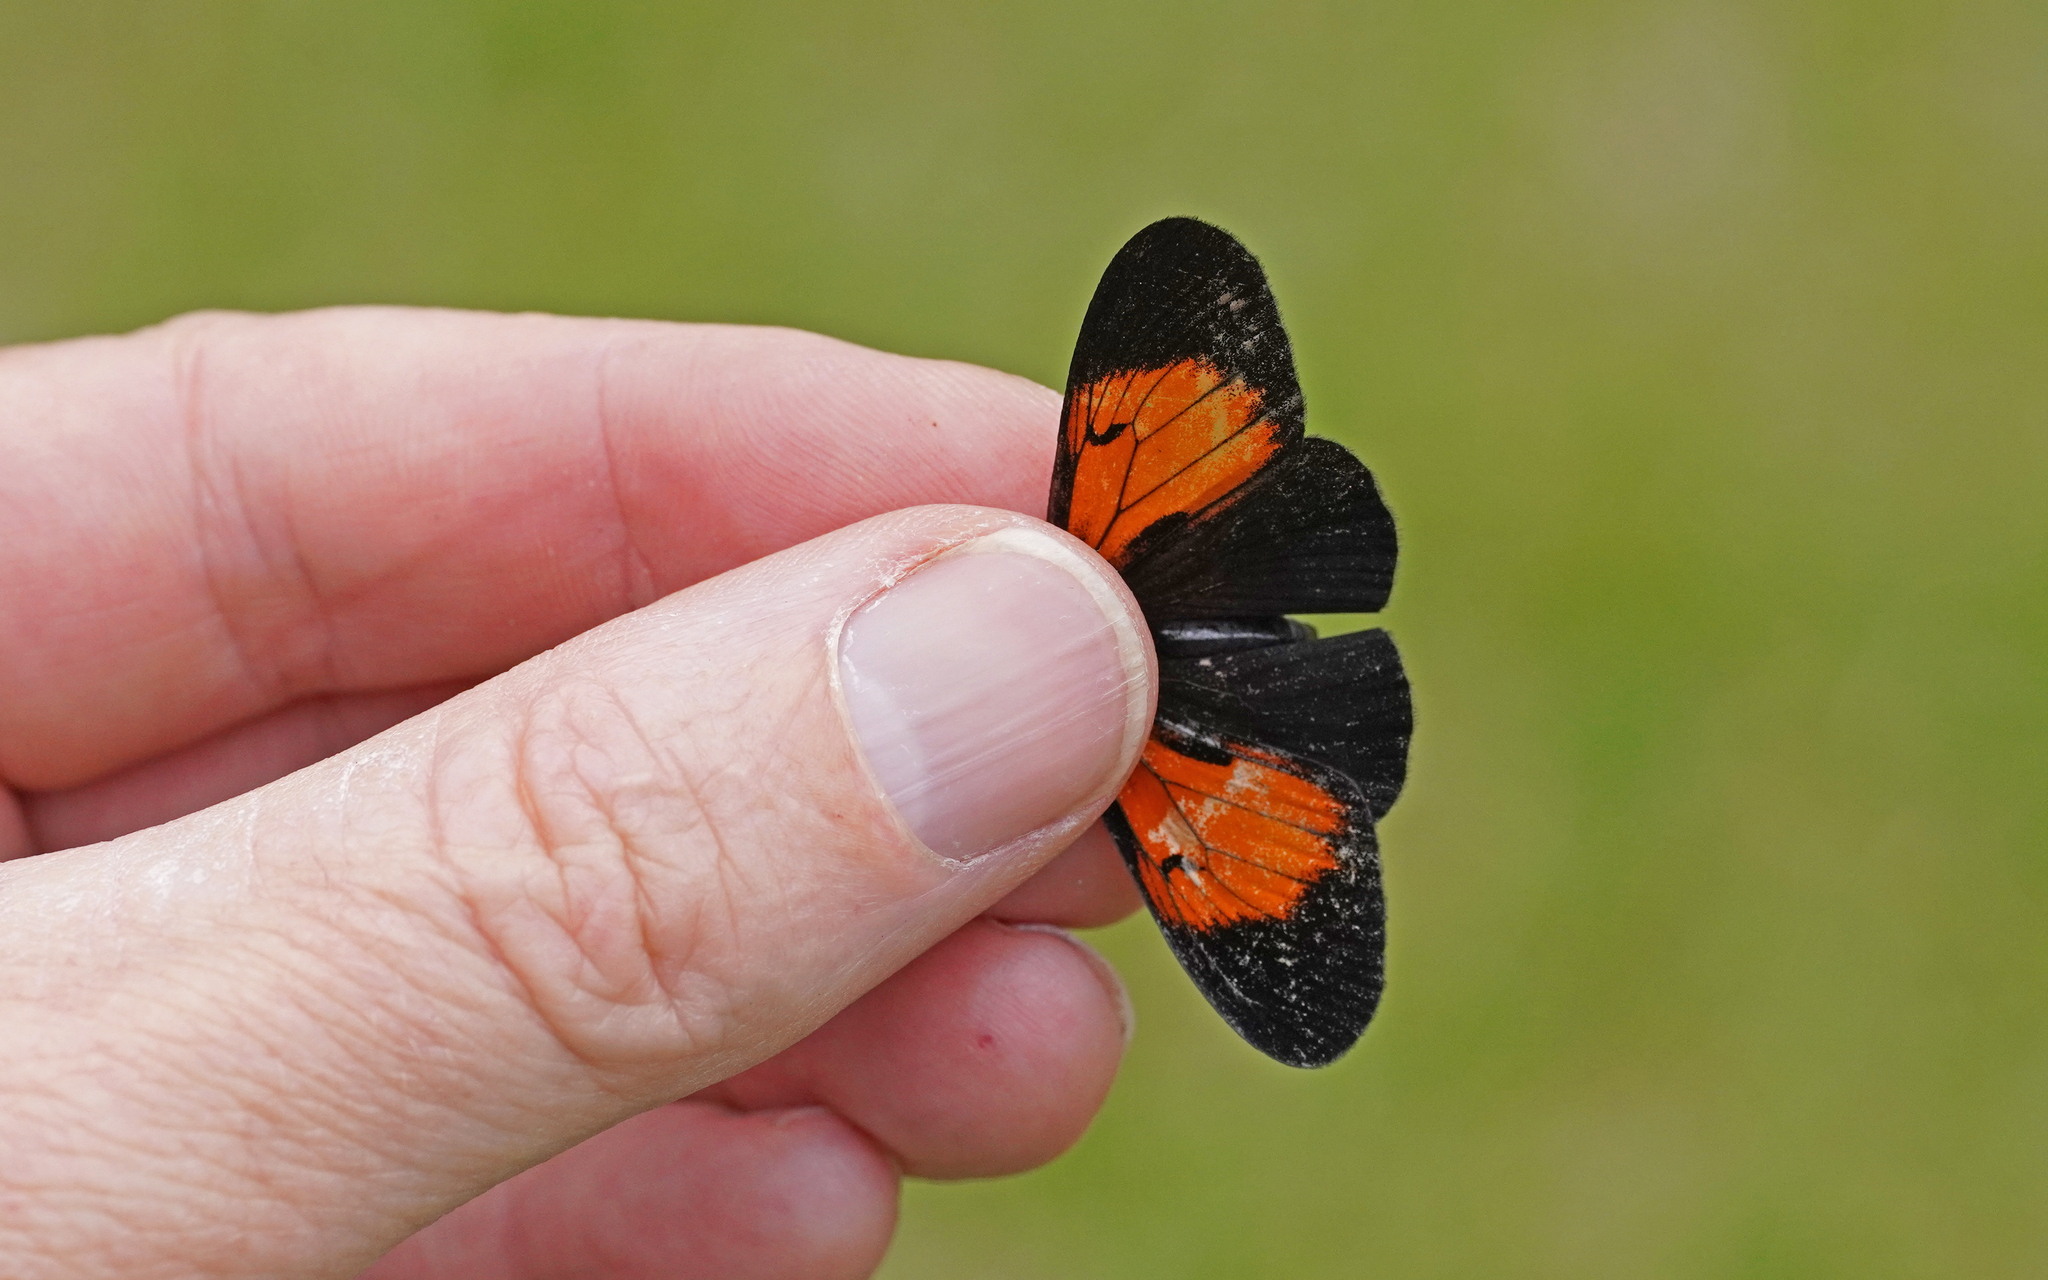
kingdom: Animalia
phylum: Arthropoda
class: Insecta
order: Lepidoptera
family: Nymphalidae
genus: Actinote
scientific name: Actinote stratonice
